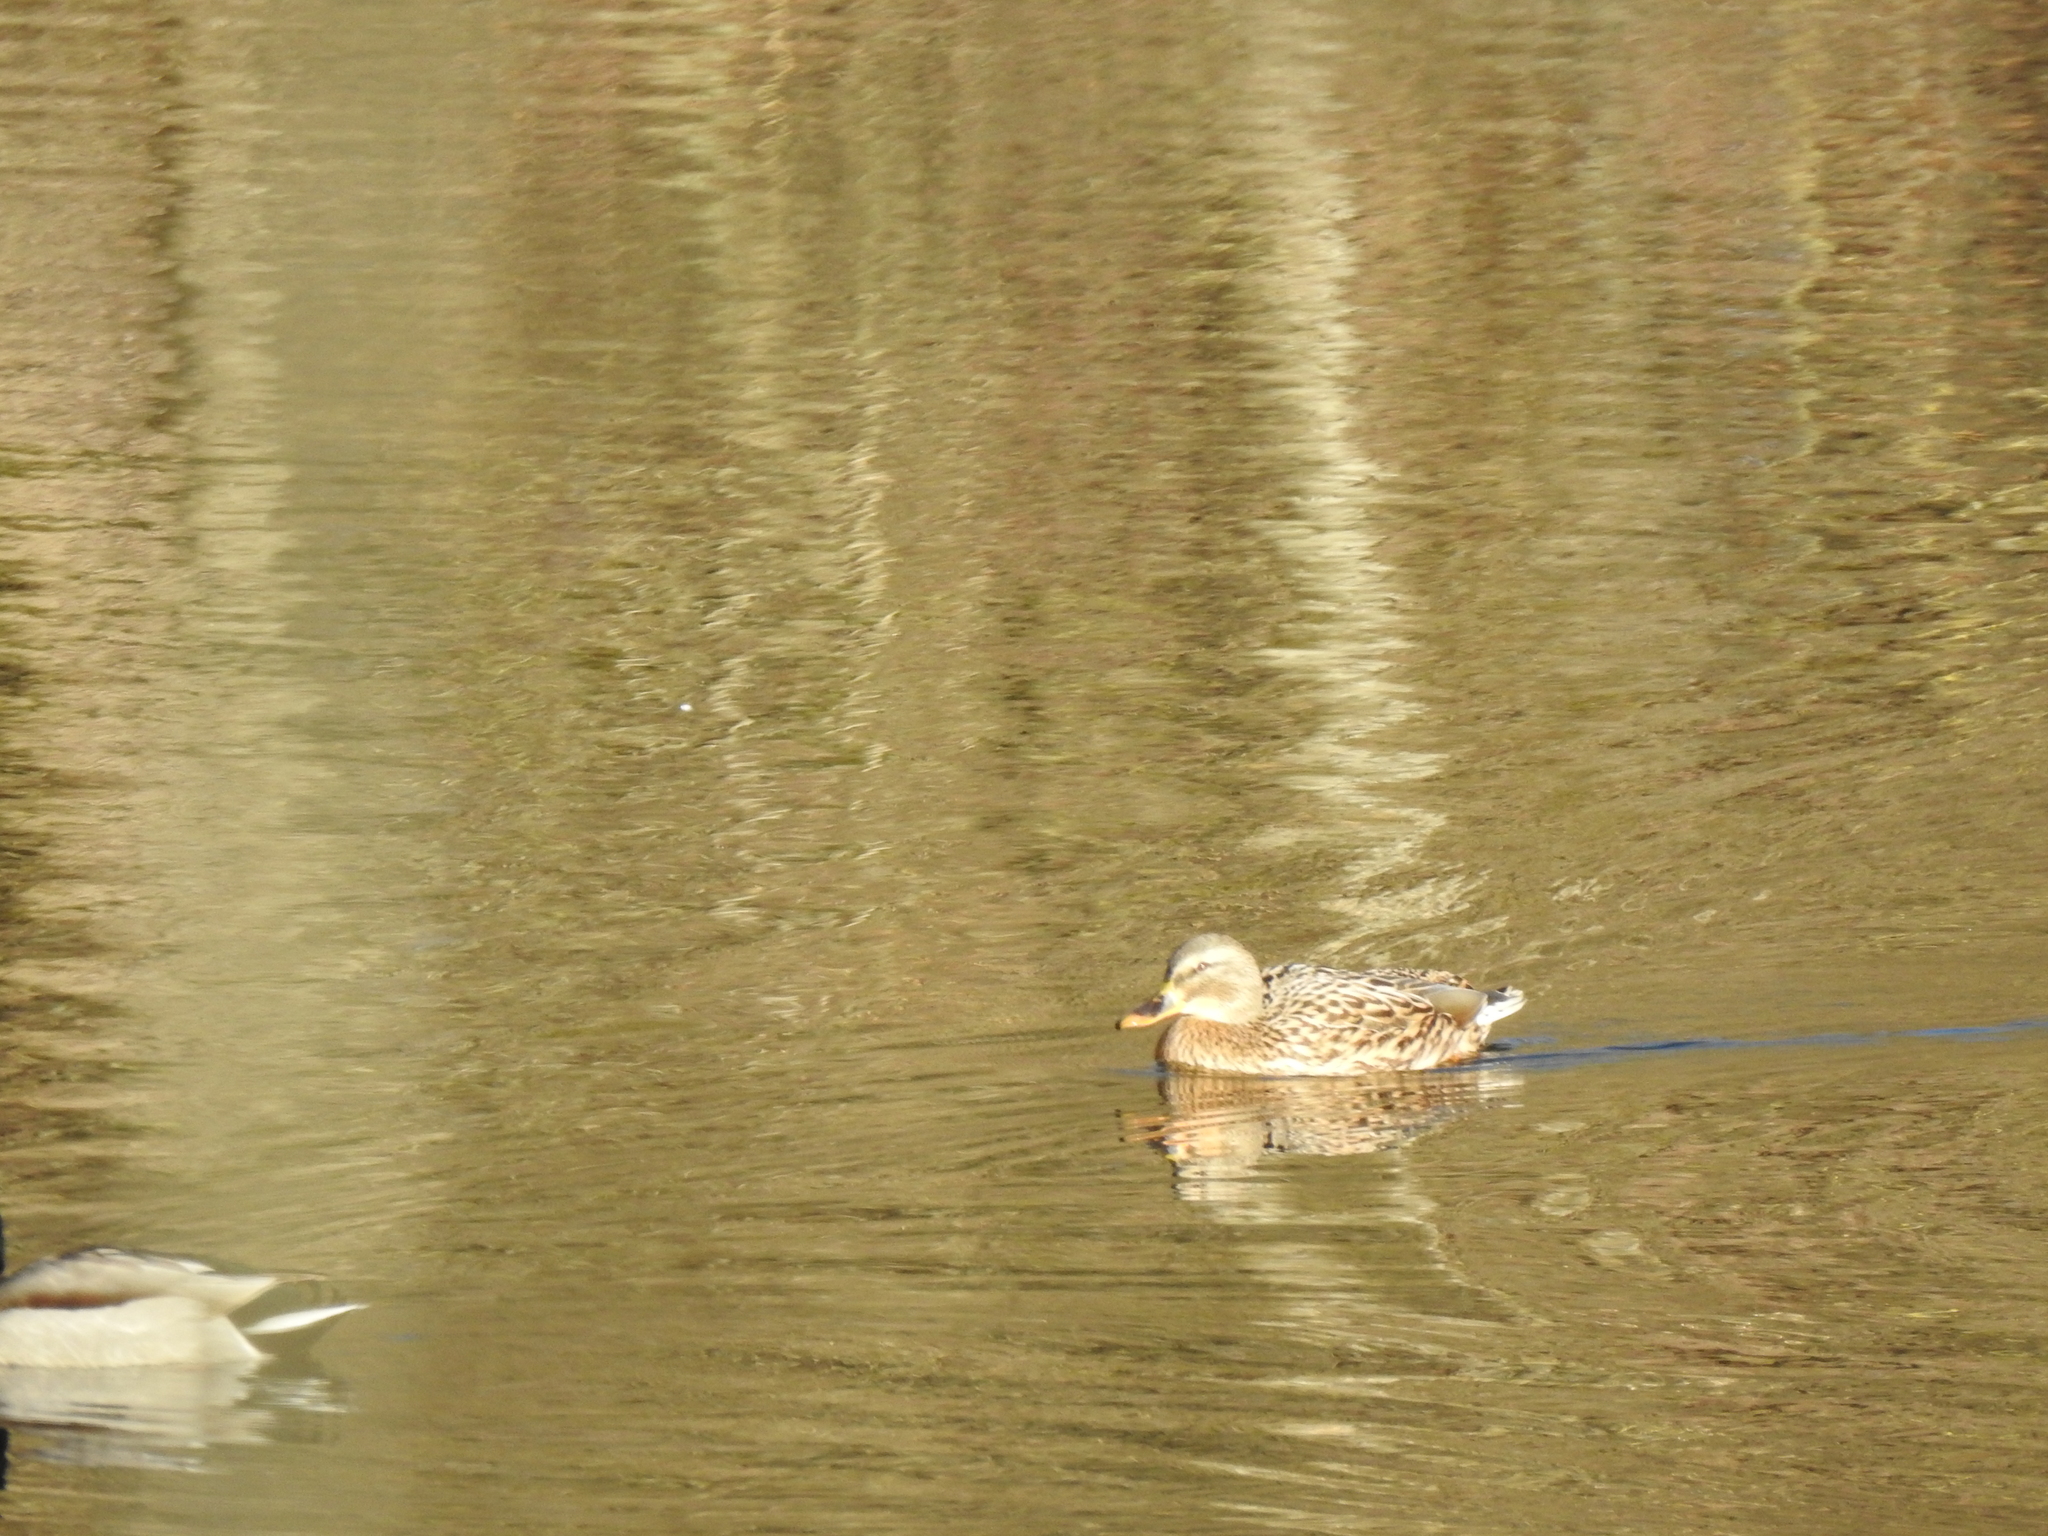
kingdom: Animalia
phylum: Chordata
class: Aves
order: Anseriformes
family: Anatidae
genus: Anas
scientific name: Anas platyrhynchos
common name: Mallard
